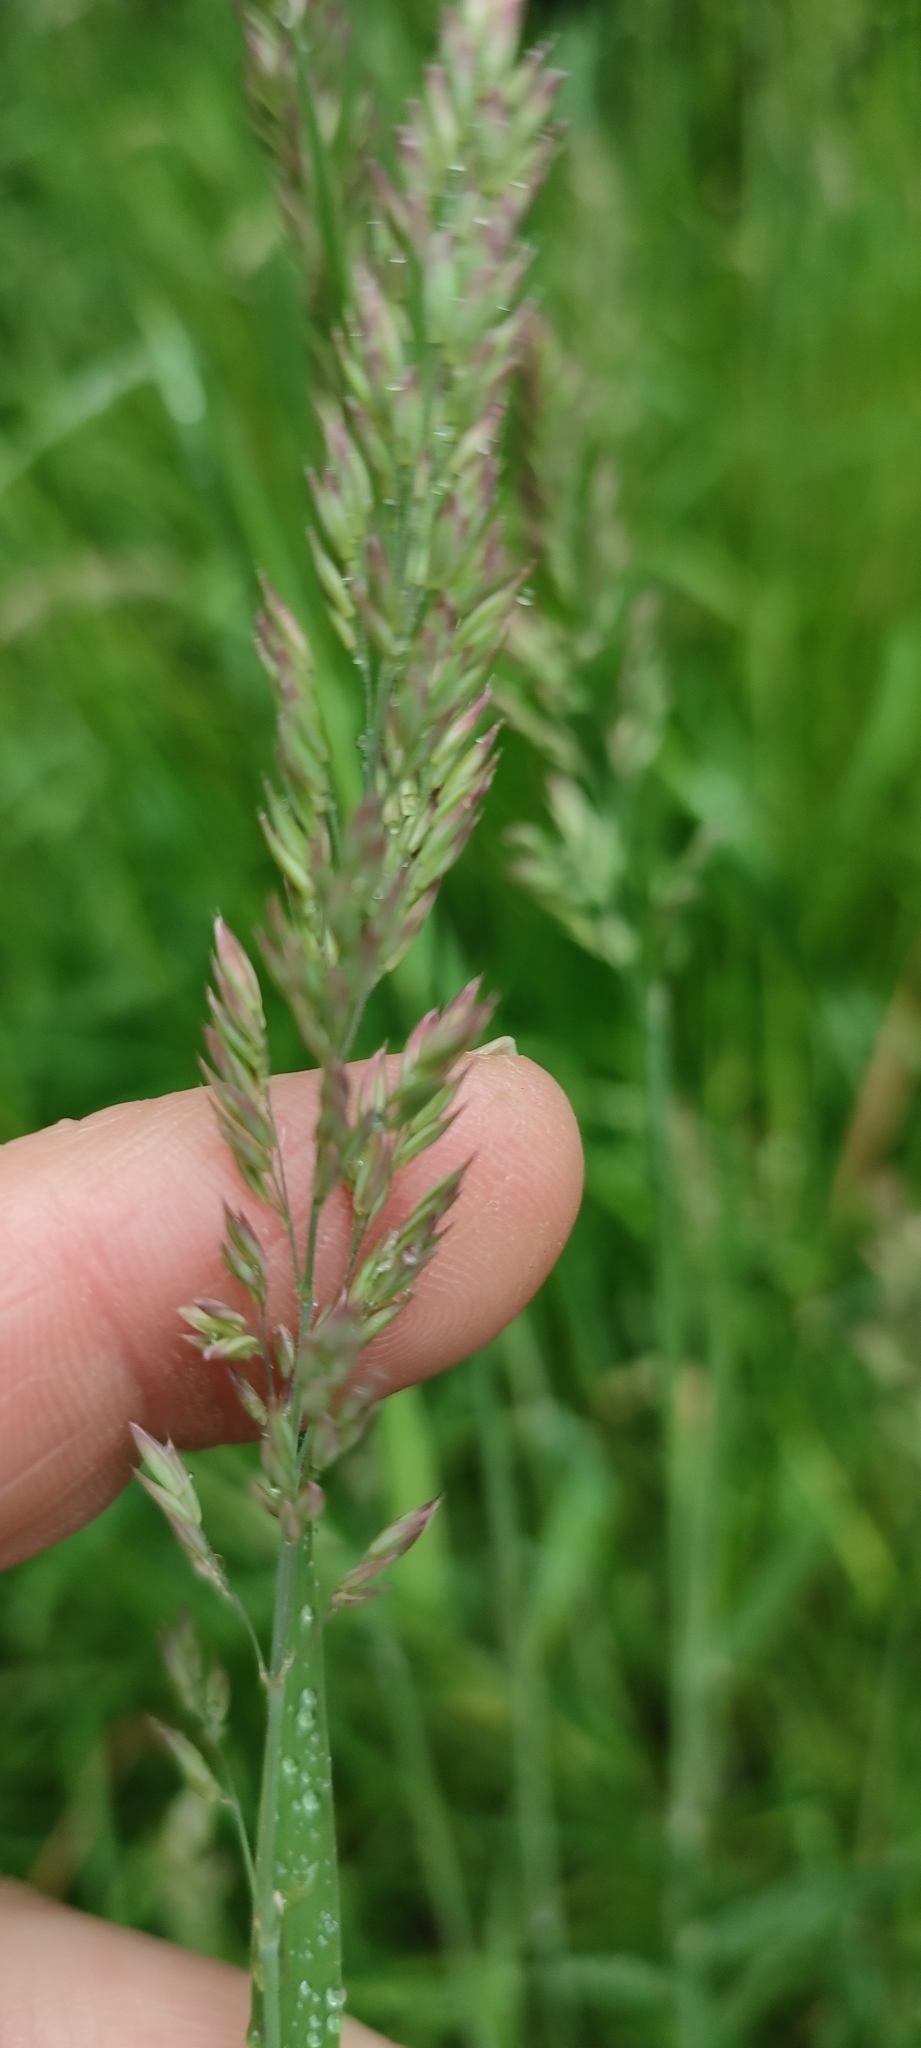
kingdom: Plantae
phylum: Tracheophyta
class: Liliopsida
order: Poales
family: Poaceae
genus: Holcus
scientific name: Holcus lanatus
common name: Yorkshire-fog
